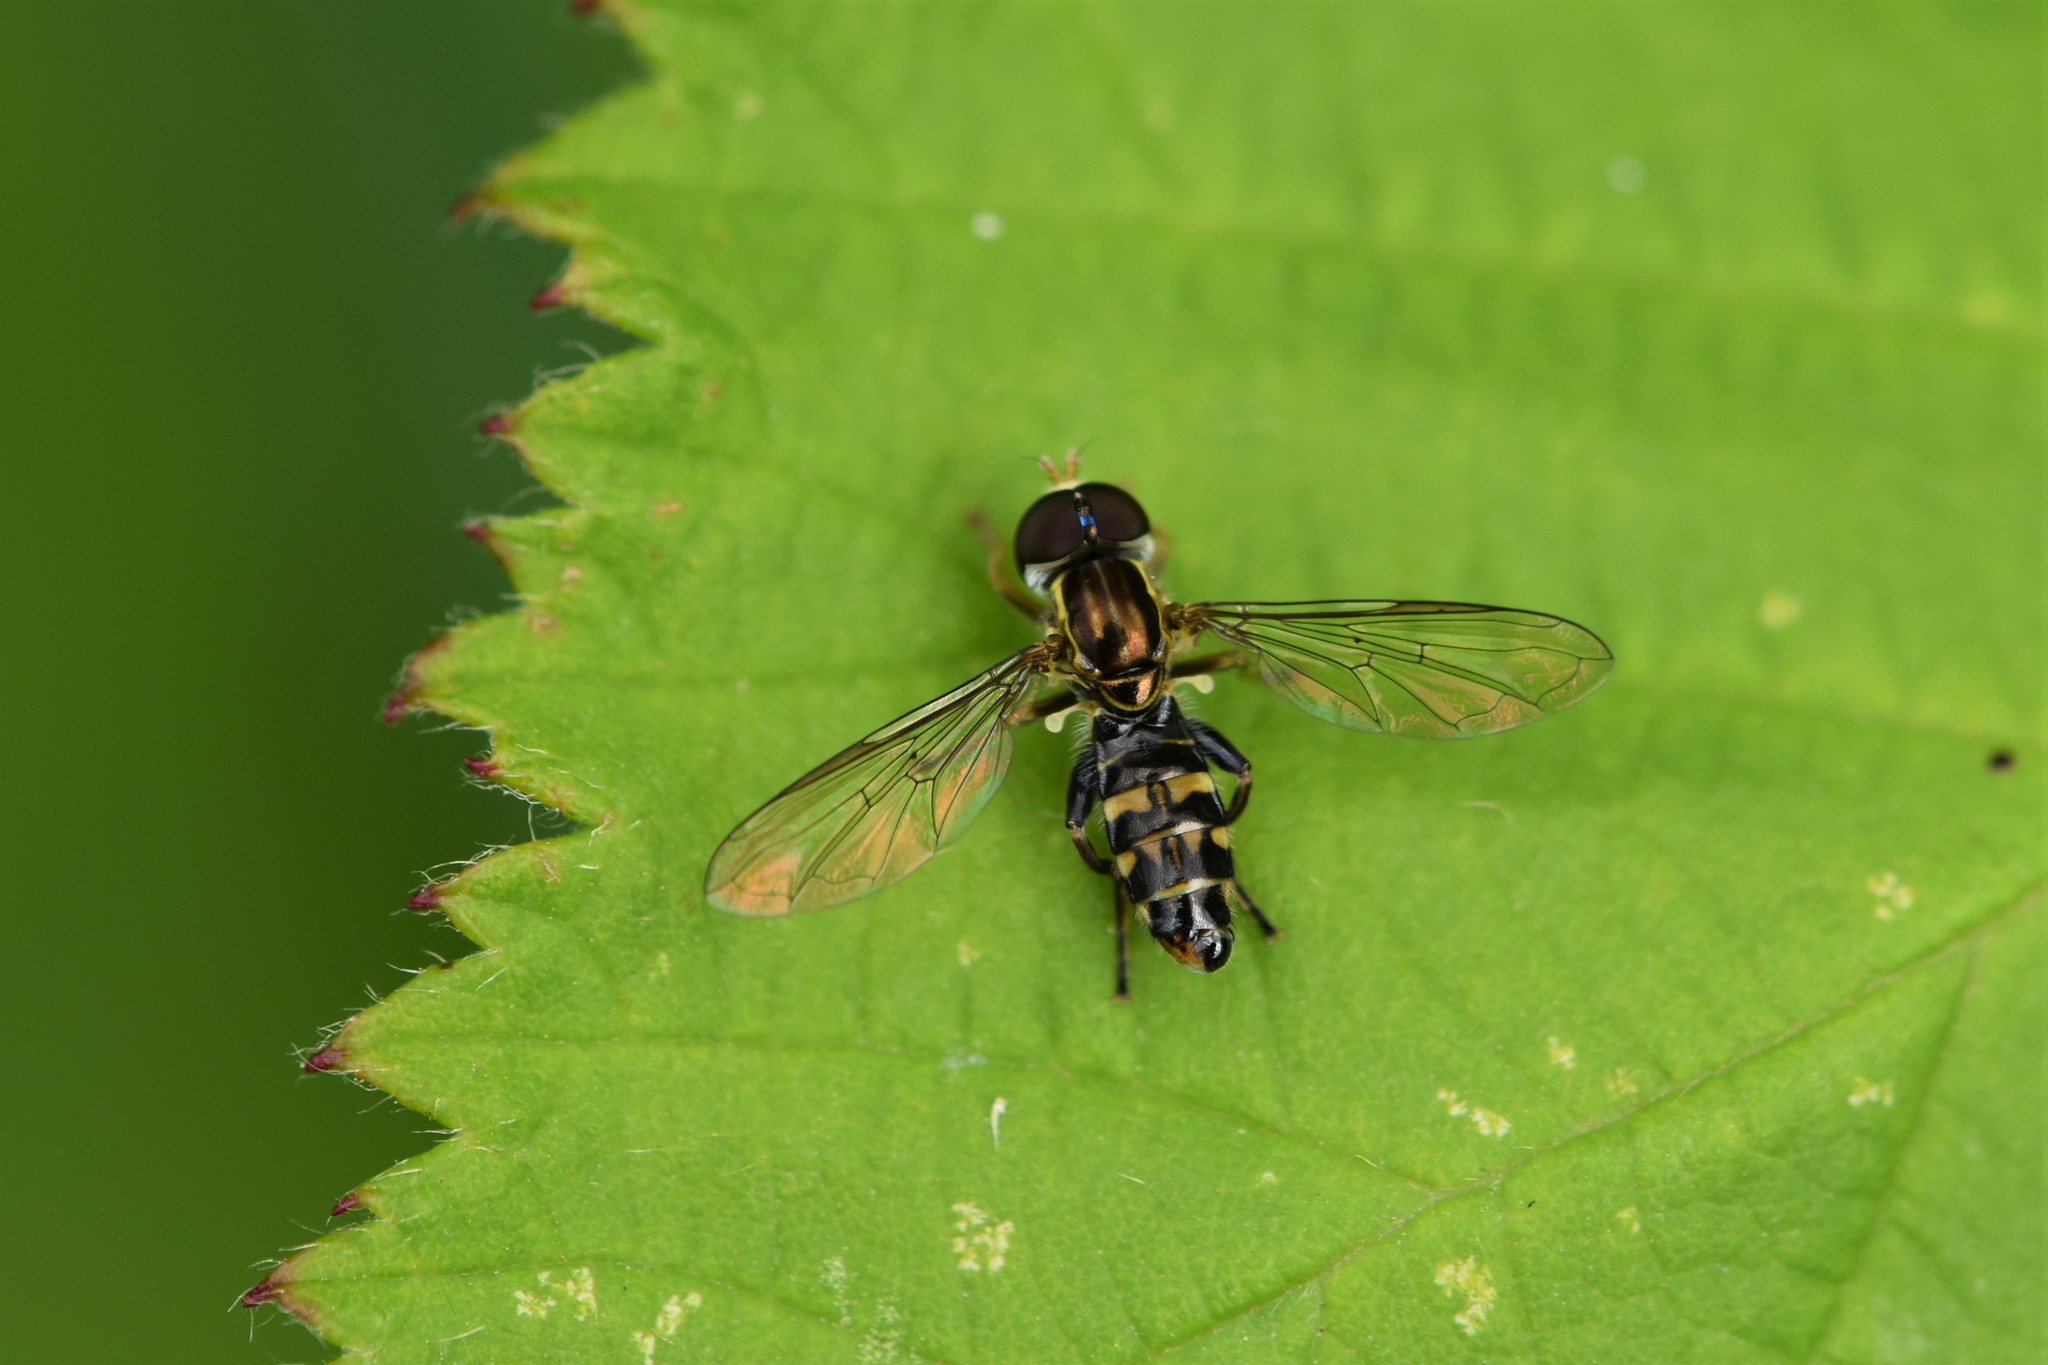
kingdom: Animalia
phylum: Arthropoda
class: Insecta
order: Diptera
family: Syrphidae
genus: Toxomerus
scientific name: Toxomerus occidentalis
